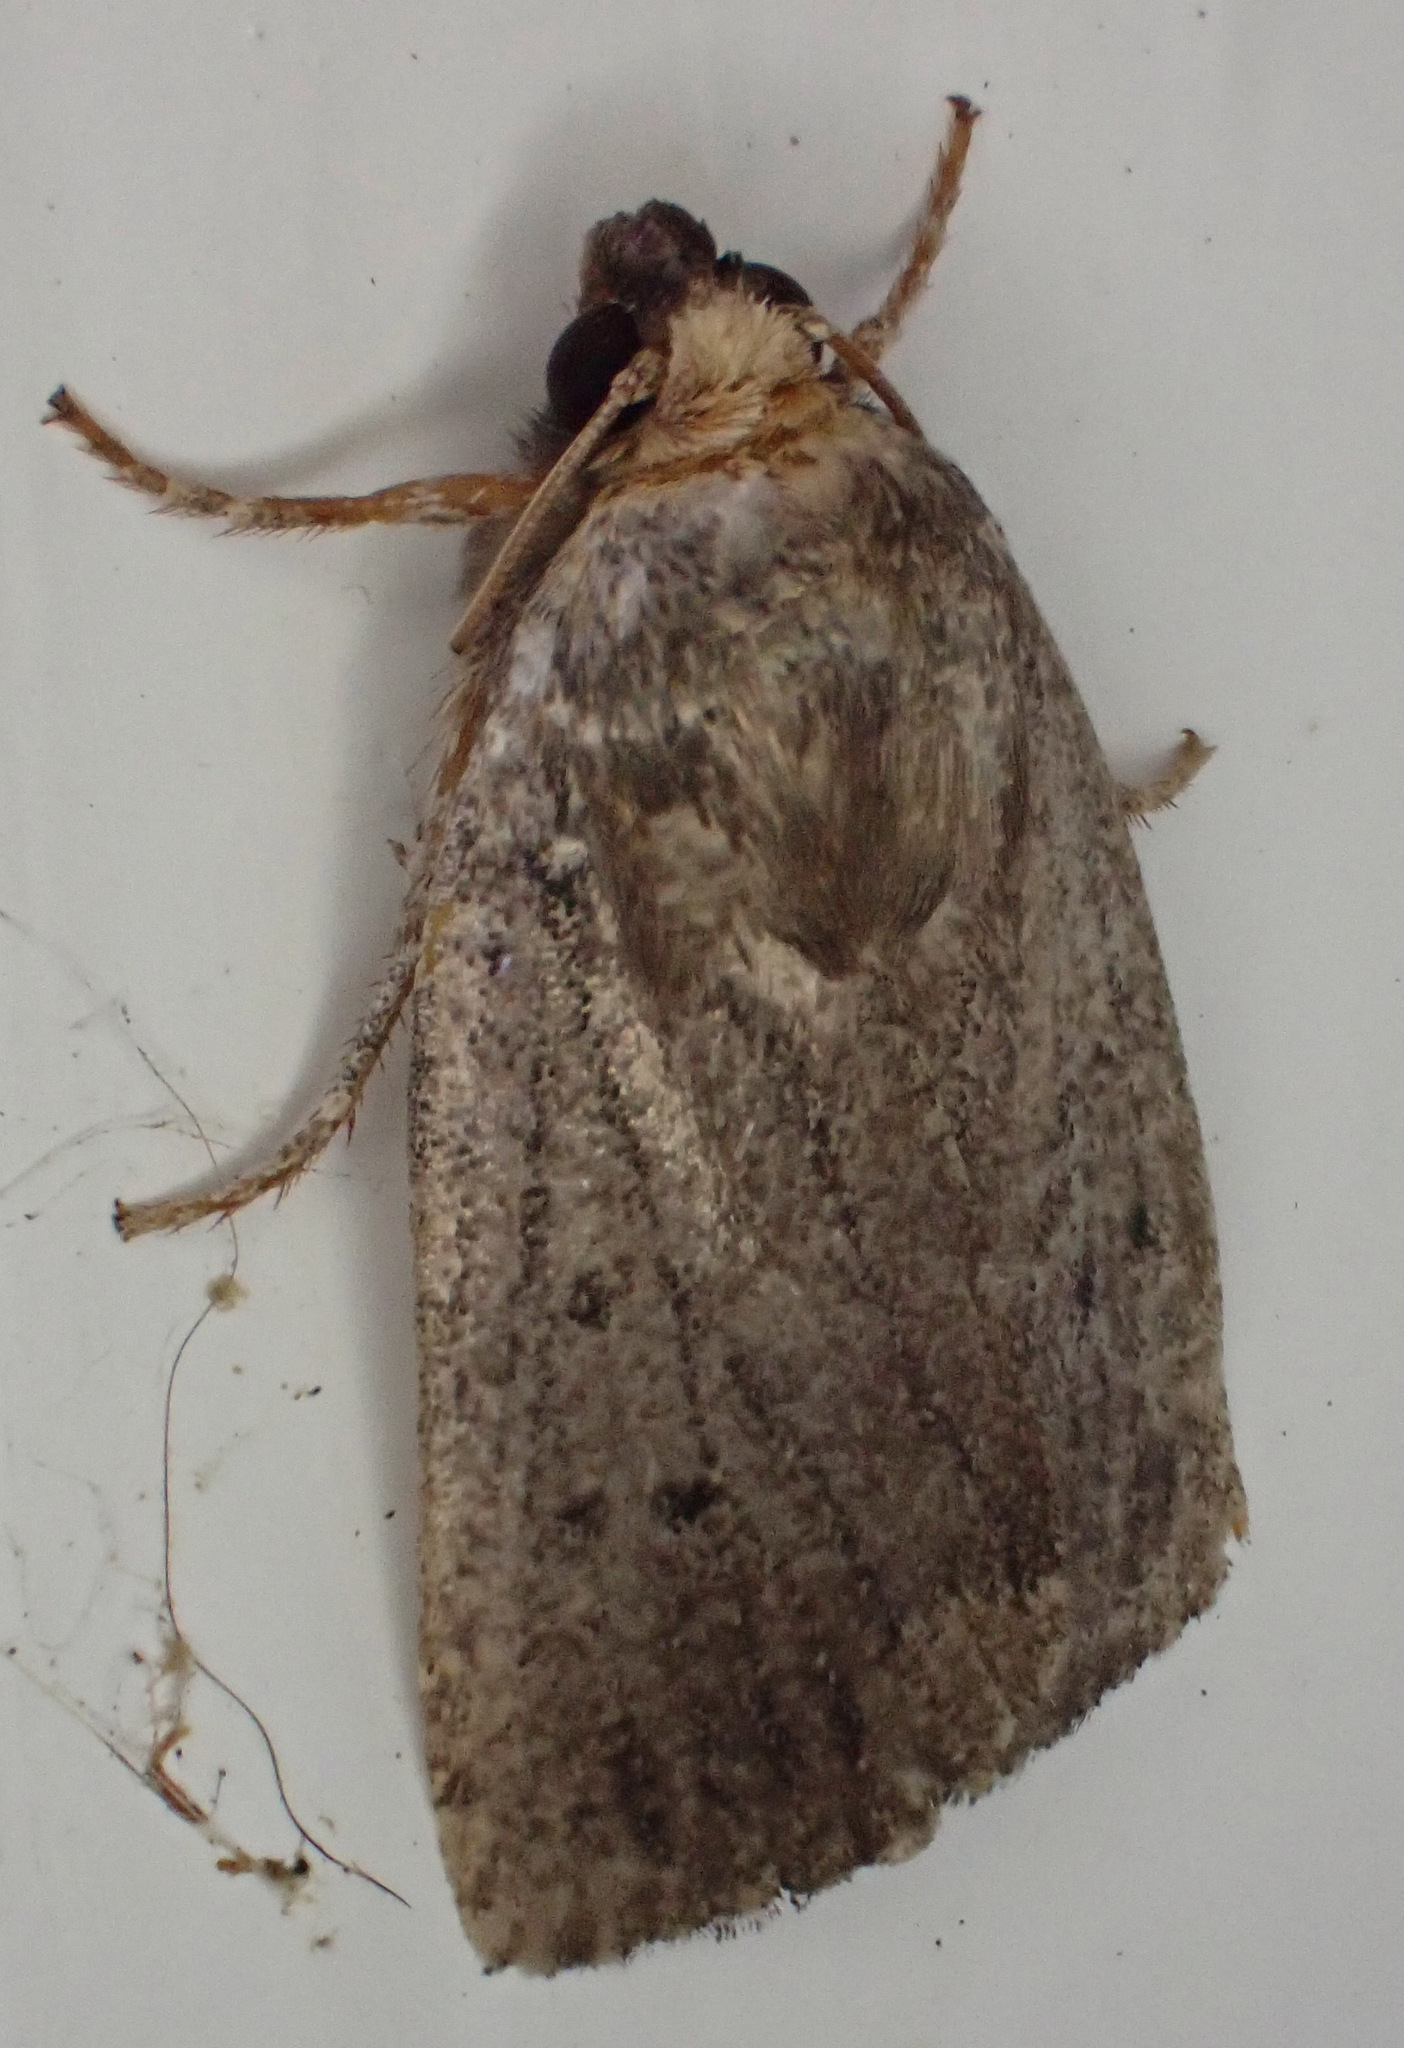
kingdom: Animalia
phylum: Arthropoda
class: Insecta
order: Lepidoptera
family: Noctuidae
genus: Amphipyra
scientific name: Amphipyra tragopoginis
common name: Mouse moth
